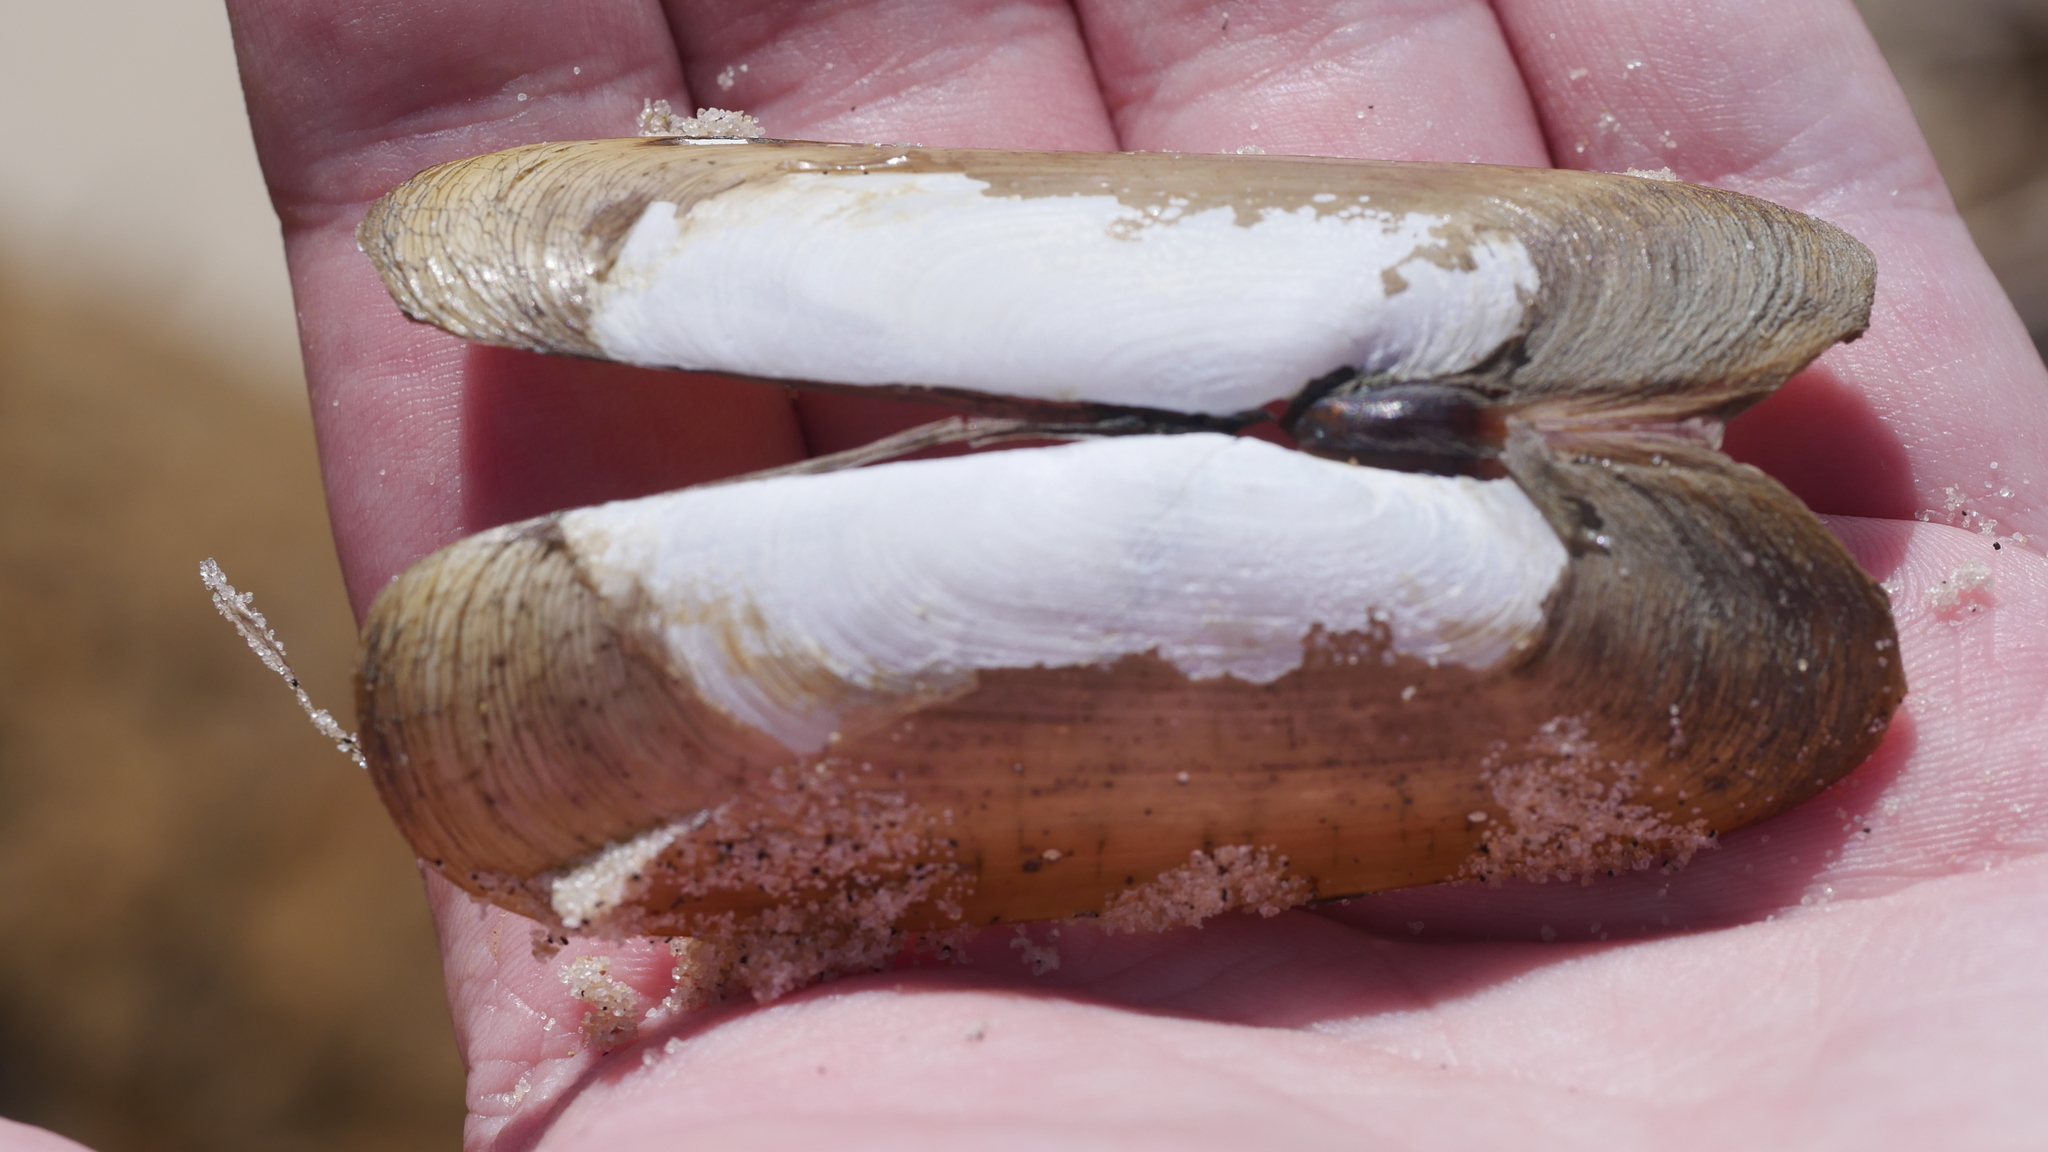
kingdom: Animalia
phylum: Mollusca
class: Bivalvia
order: Cardiida
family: Solecurtidae
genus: Tagelus
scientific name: Tagelus plebeius
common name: Stout tagelus
